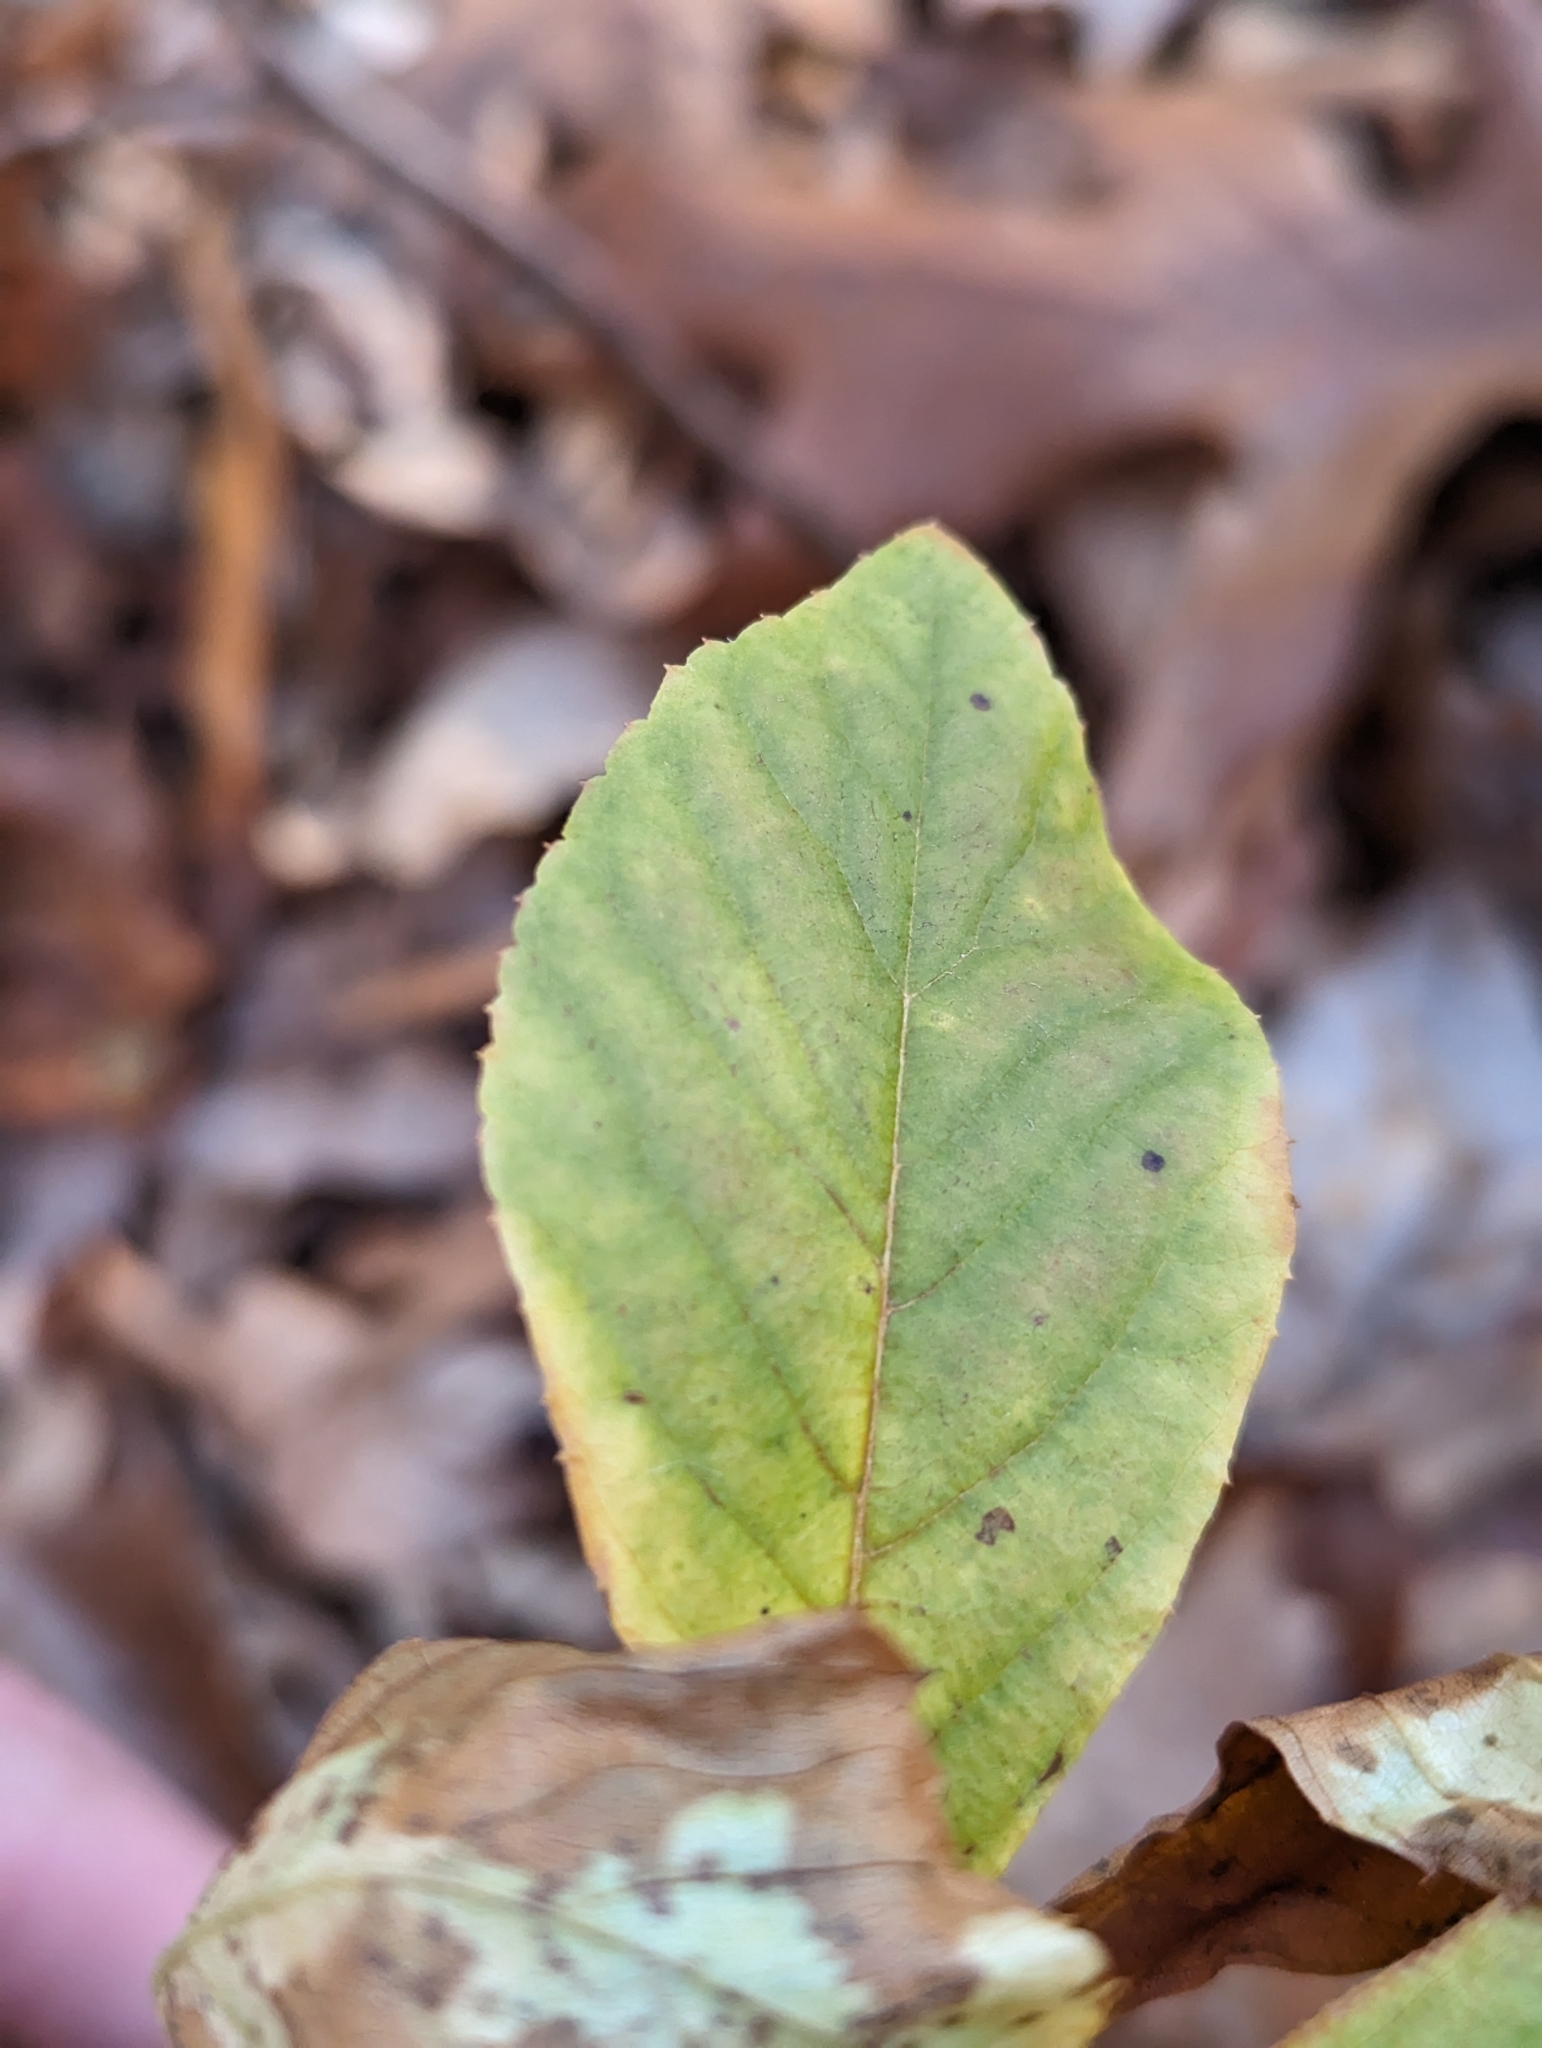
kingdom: Plantae
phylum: Tracheophyta
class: Magnoliopsida
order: Ericales
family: Clethraceae
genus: Clethra
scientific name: Clethra alnifolia
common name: Sweet pepperbush
